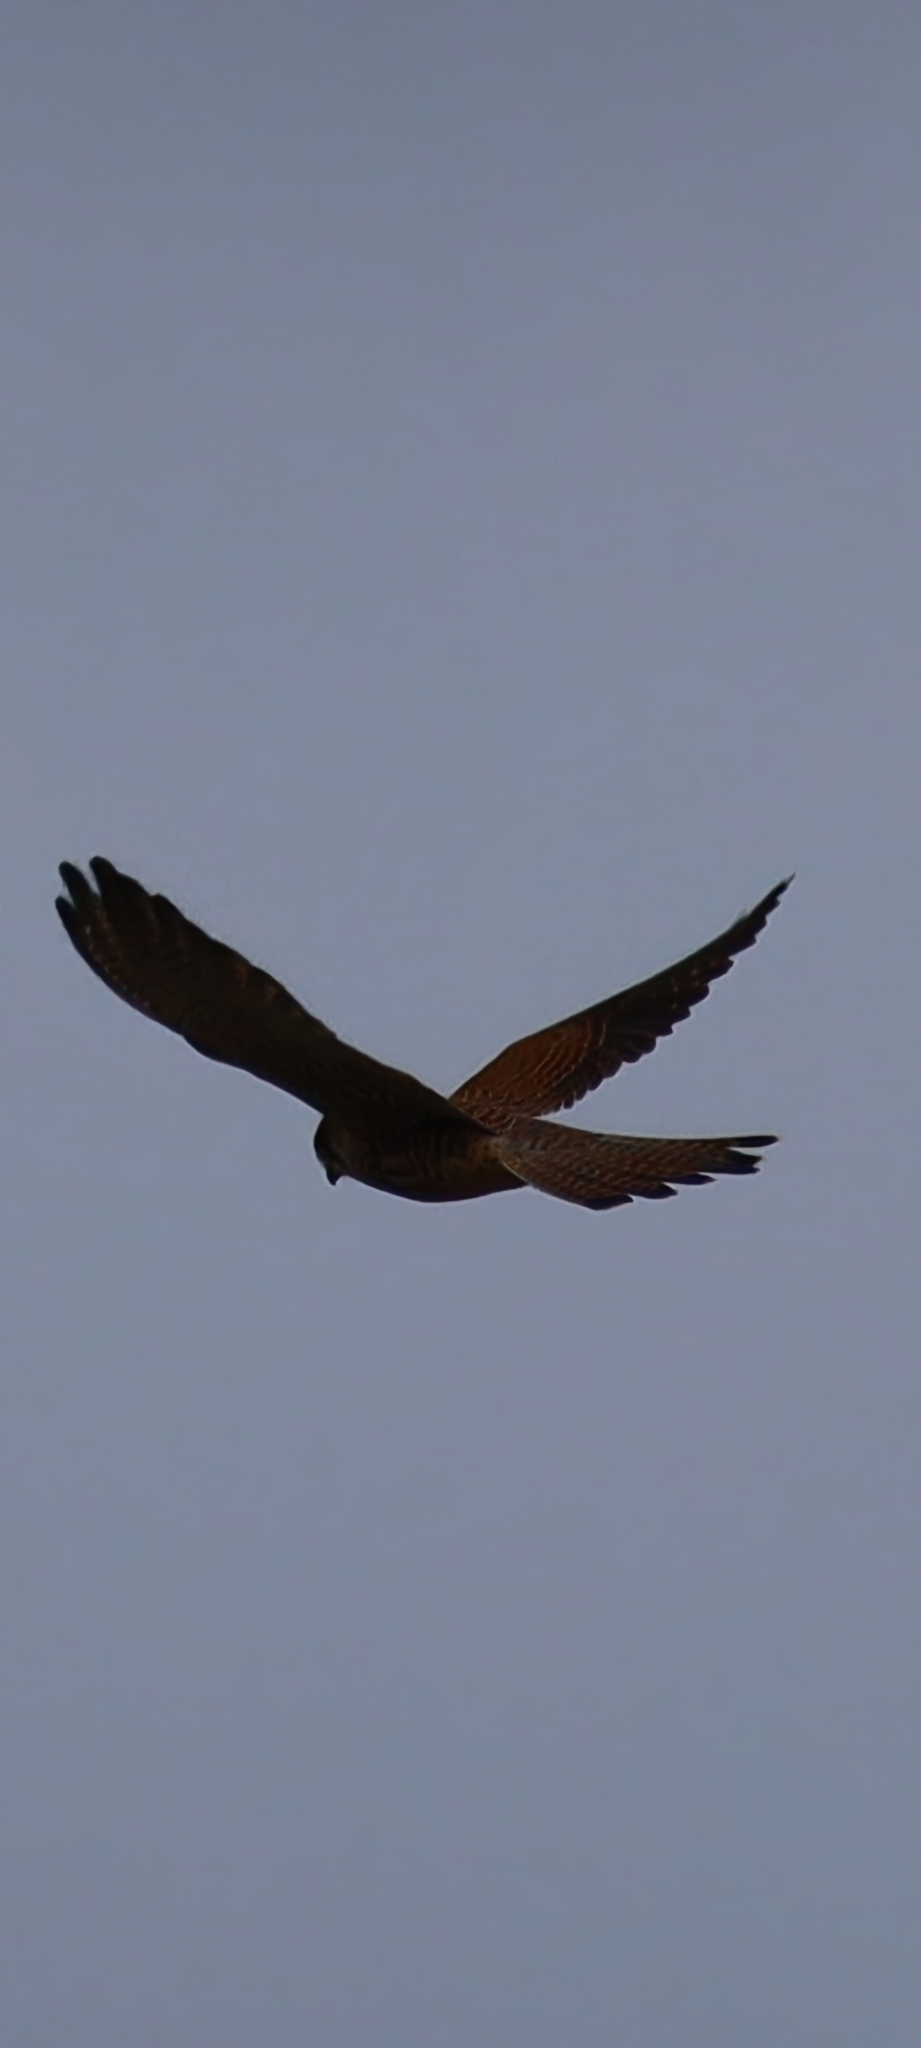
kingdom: Animalia
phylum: Chordata
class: Aves
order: Falconiformes
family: Falconidae
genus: Falco
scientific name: Falco tinnunculus
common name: Common kestrel
